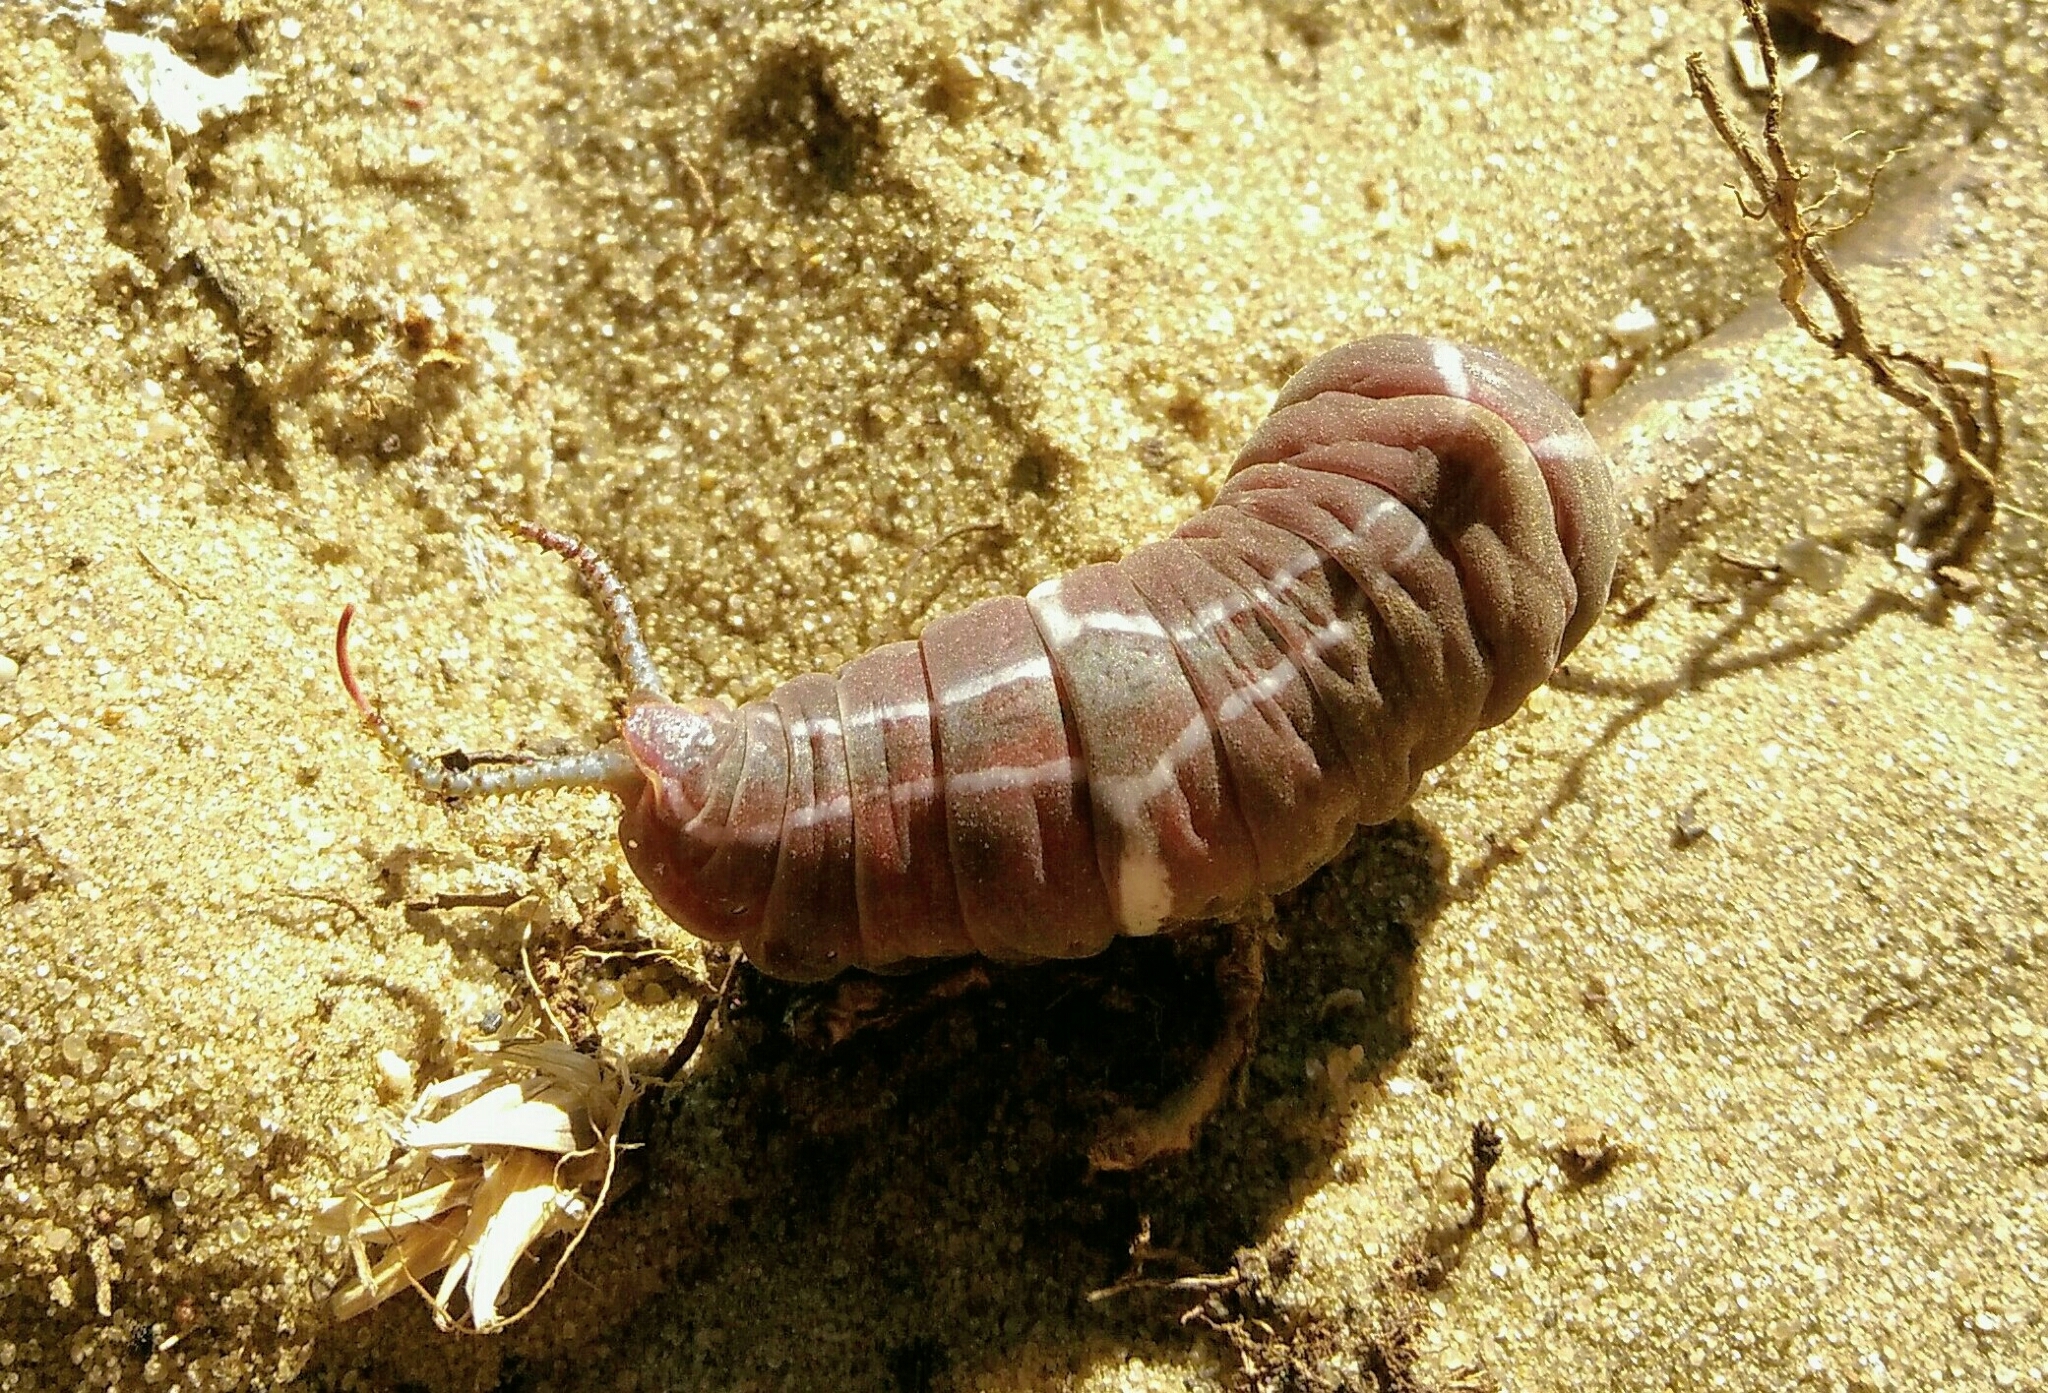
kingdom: Animalia
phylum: Arthropoda
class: Insecta
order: Lepidoptera
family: Notodontidae
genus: Cerura
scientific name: Cerura erminea
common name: Lesser puss moth
